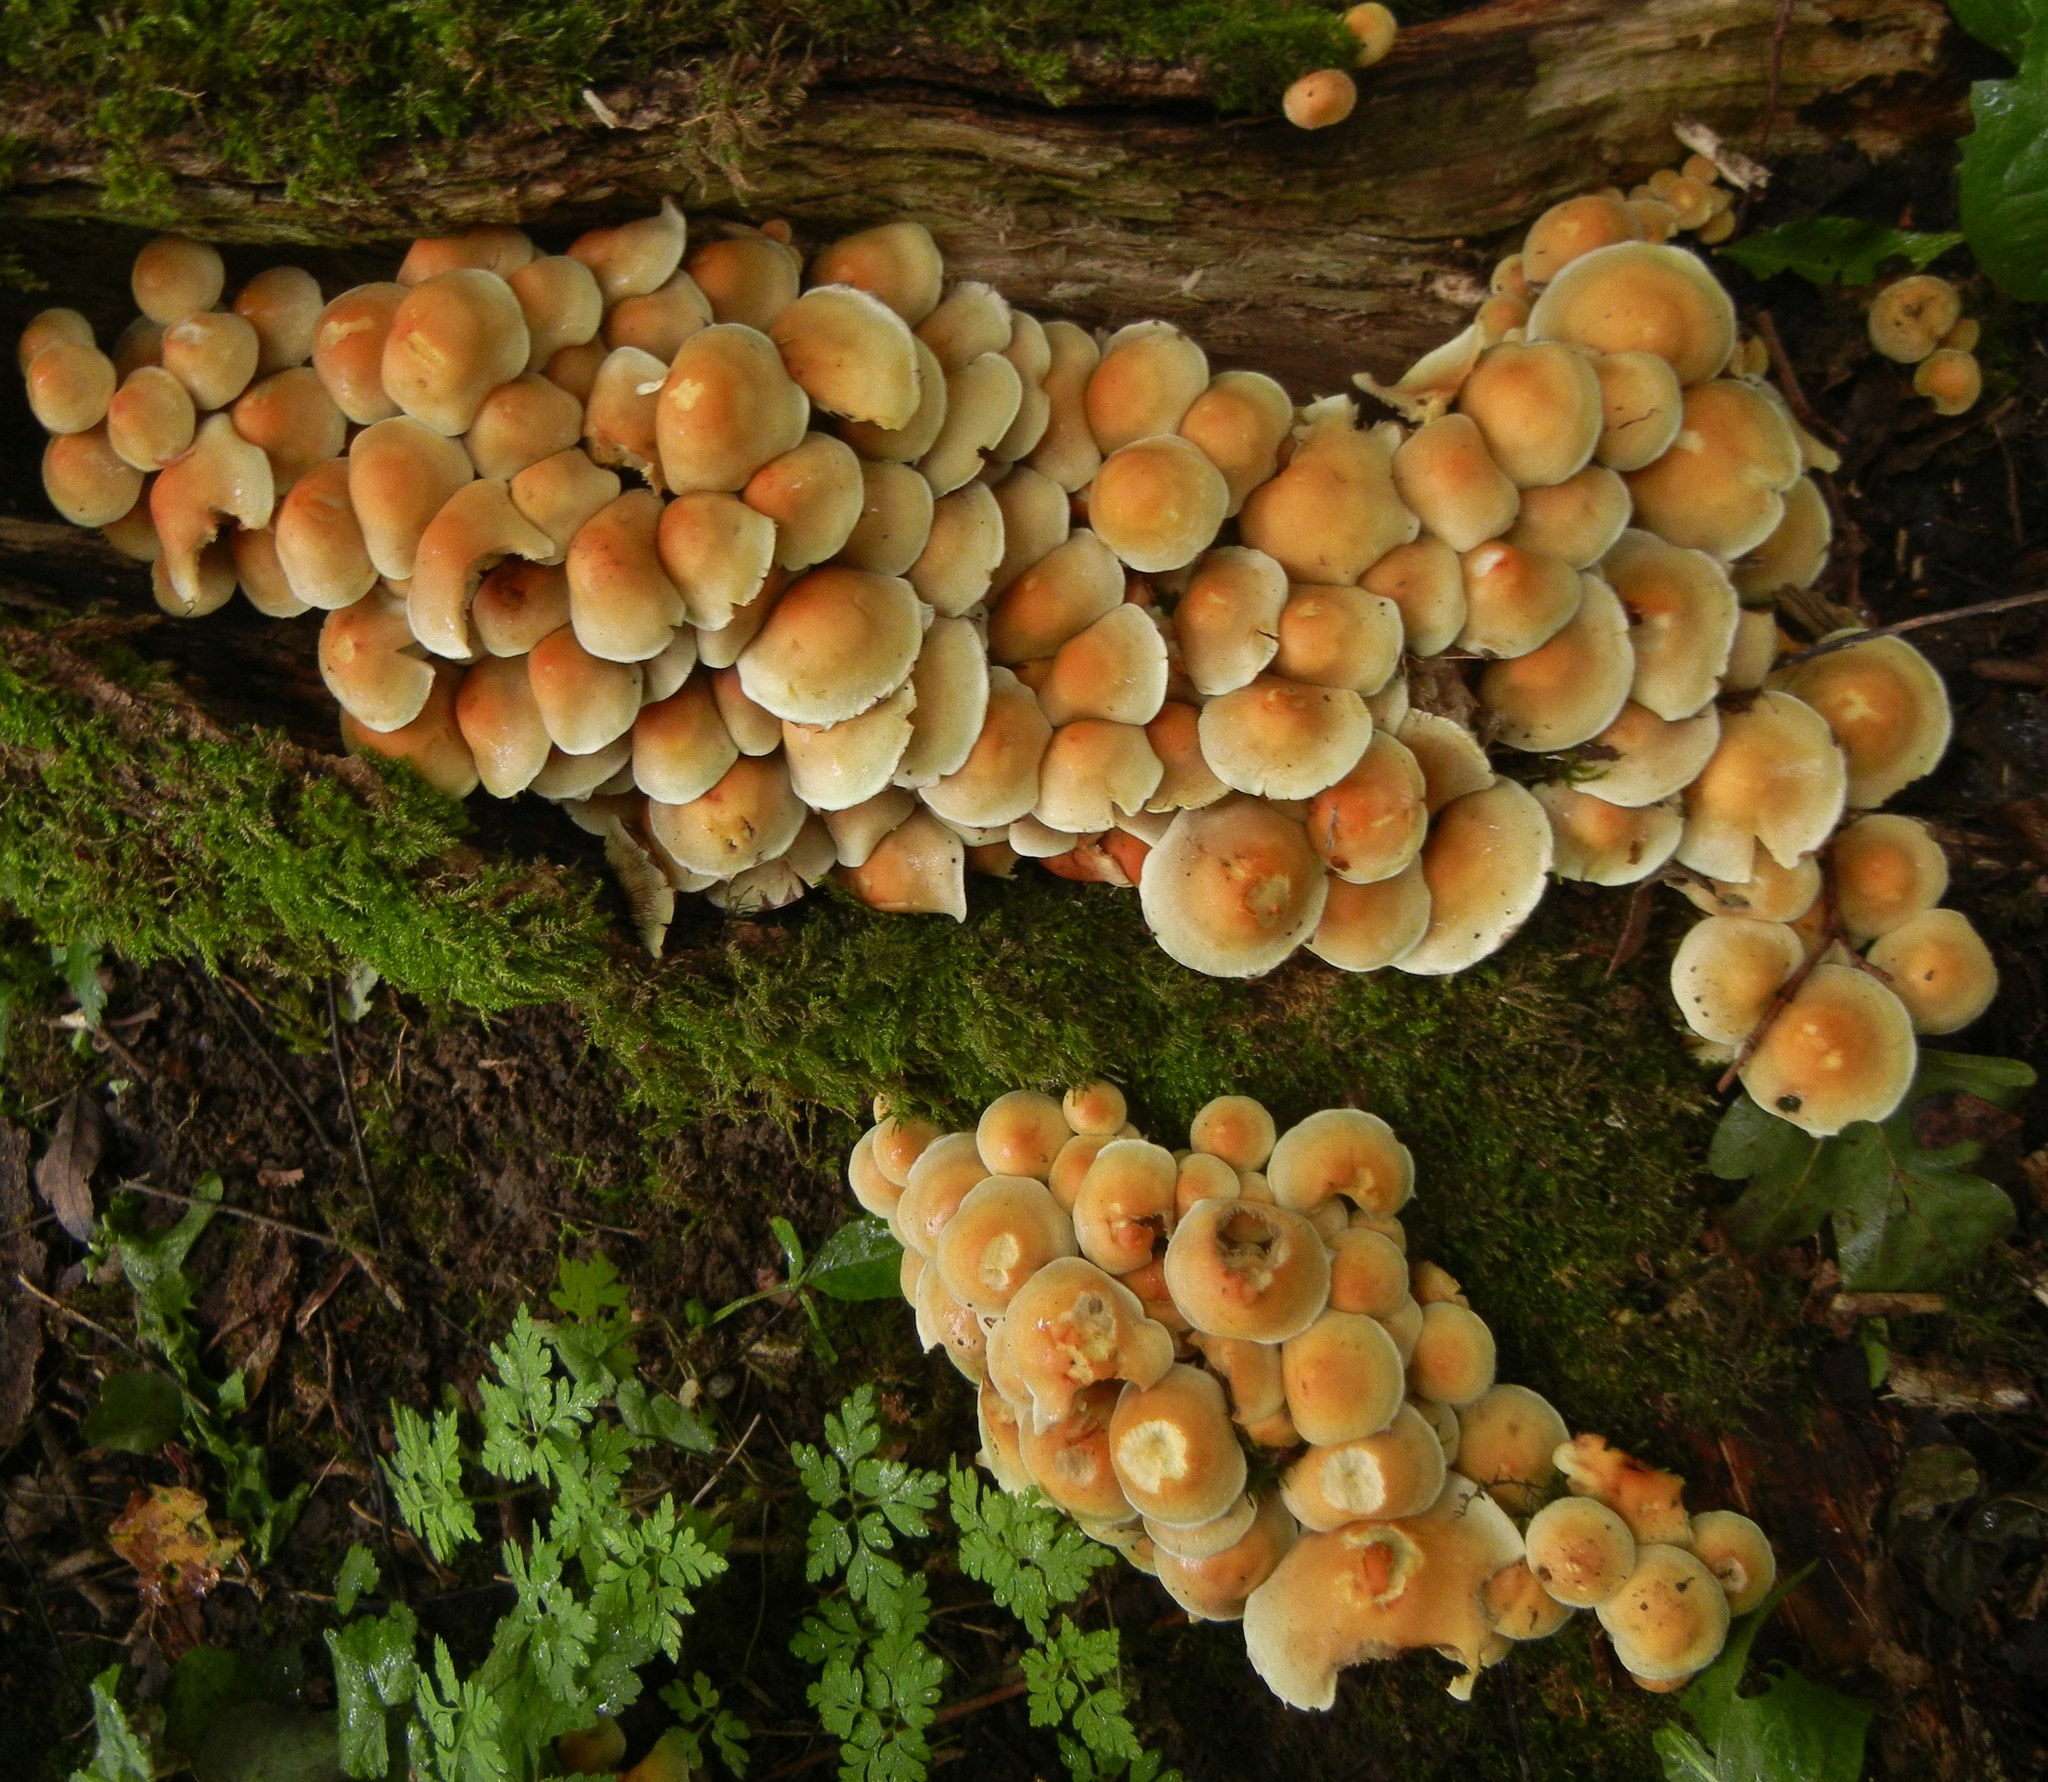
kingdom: Fungi
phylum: Basidiomycota
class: Agaricomycetes
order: Agaricales
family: Strophariaceae
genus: Hypholoma
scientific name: Hypholoma fasciculare
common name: Sulphur tuft
